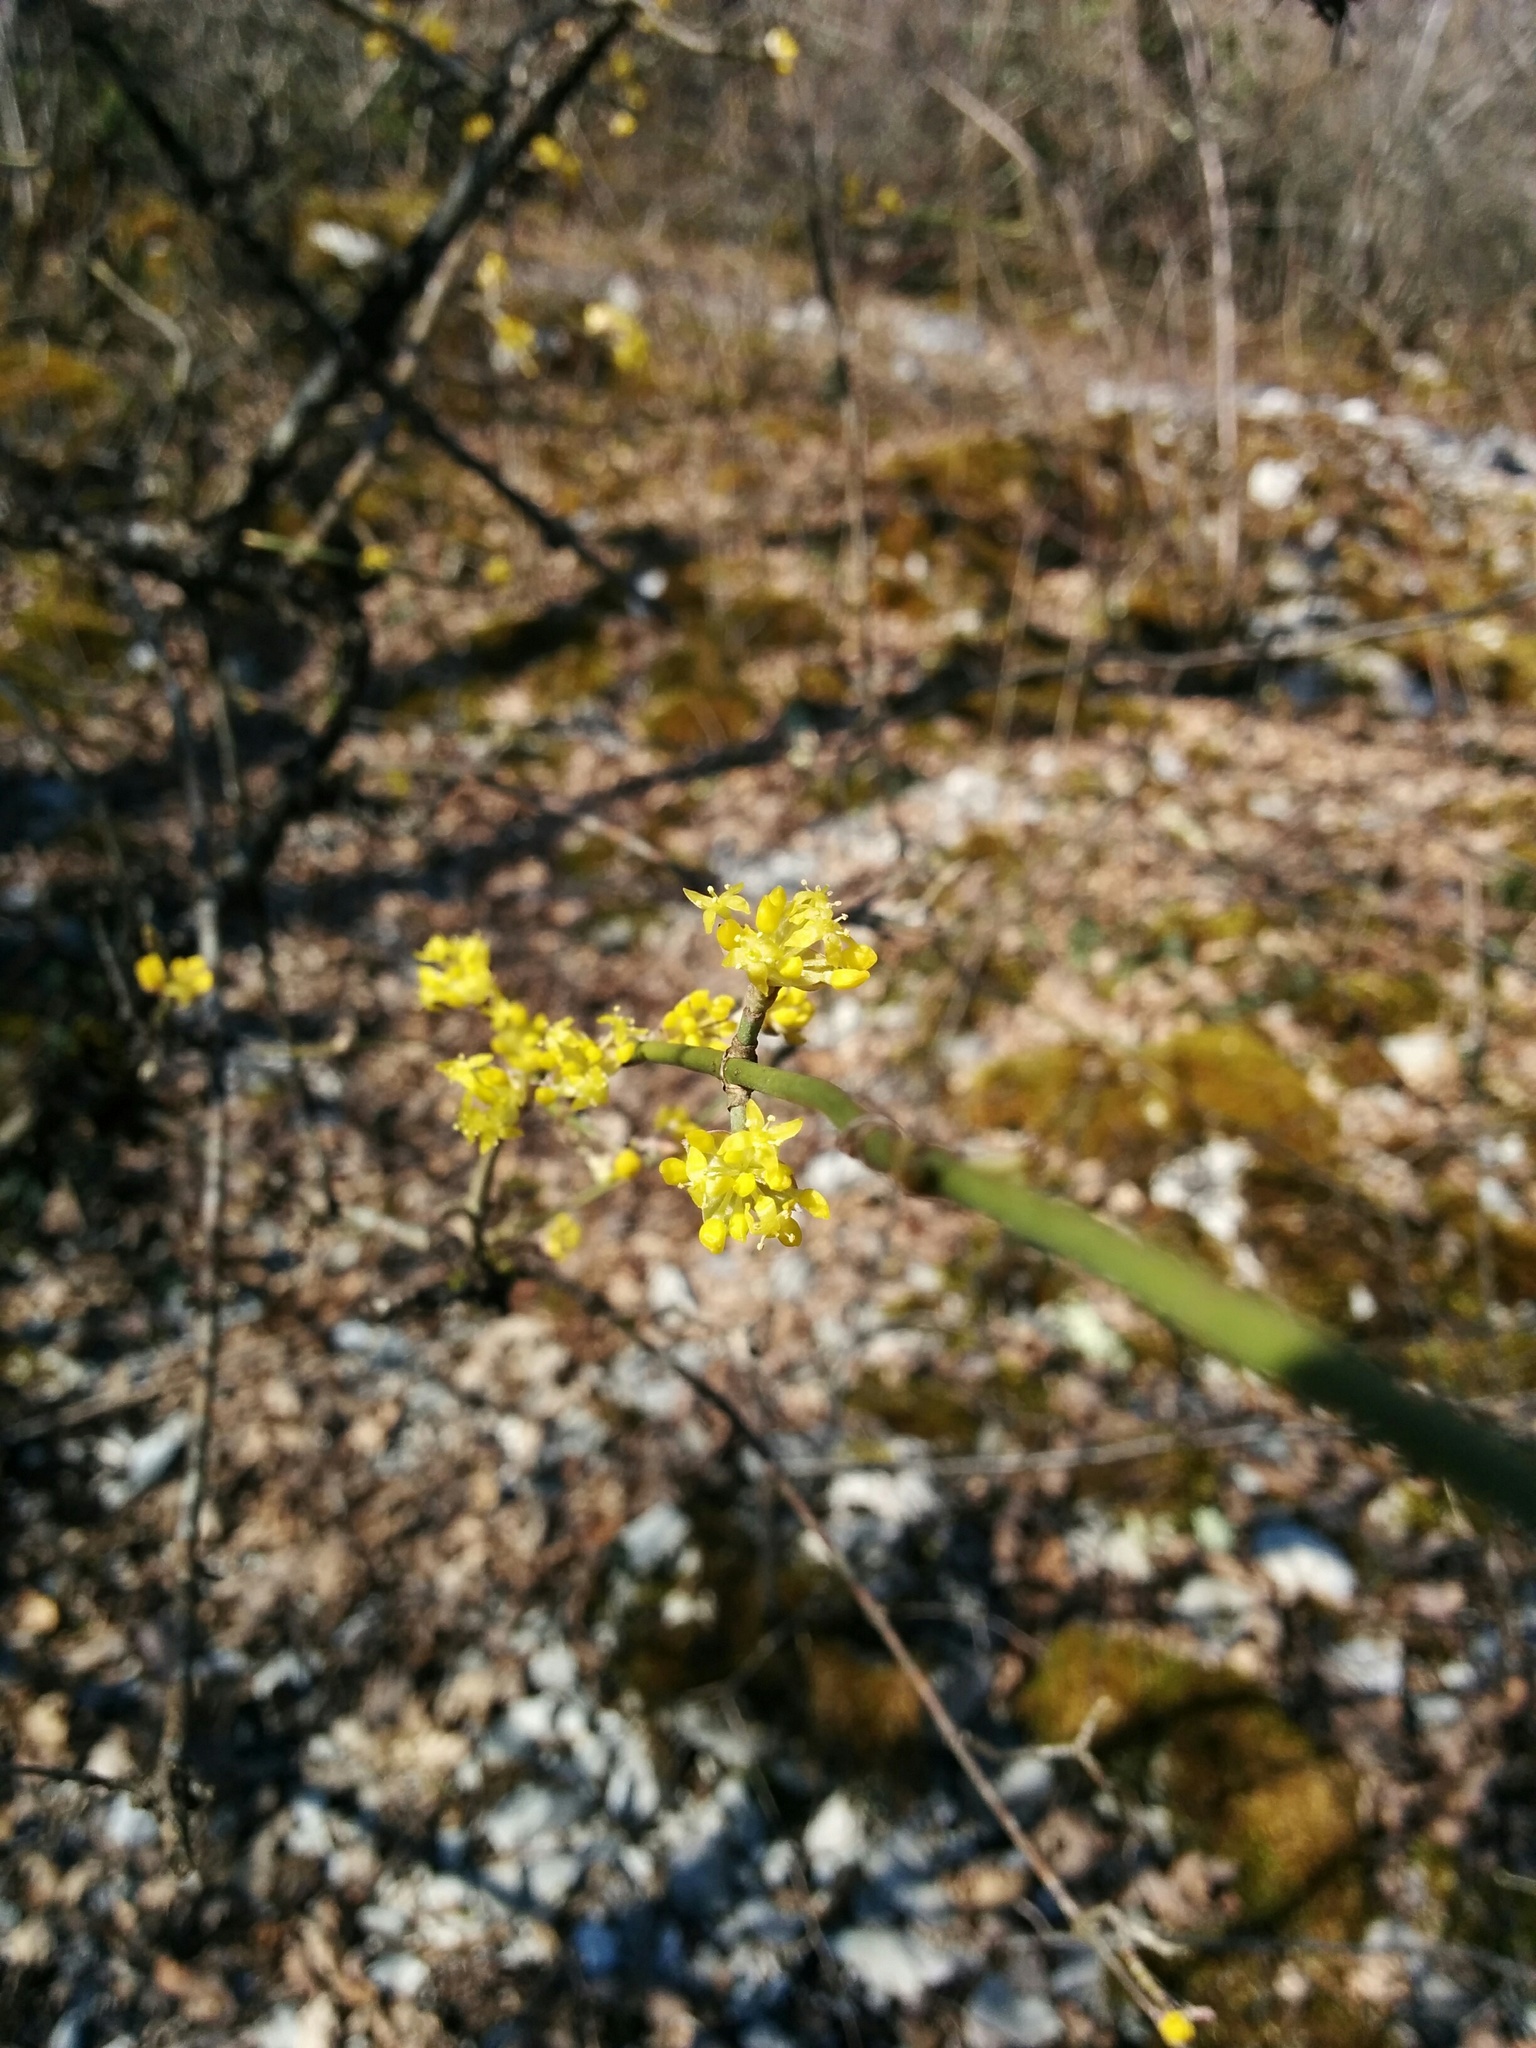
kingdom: Plantae
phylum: Tracheophyta
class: Magnoliopsida
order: Cornales
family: Cornaceae
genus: Cornus
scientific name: Cornus mas
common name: Cornelian-cherry
